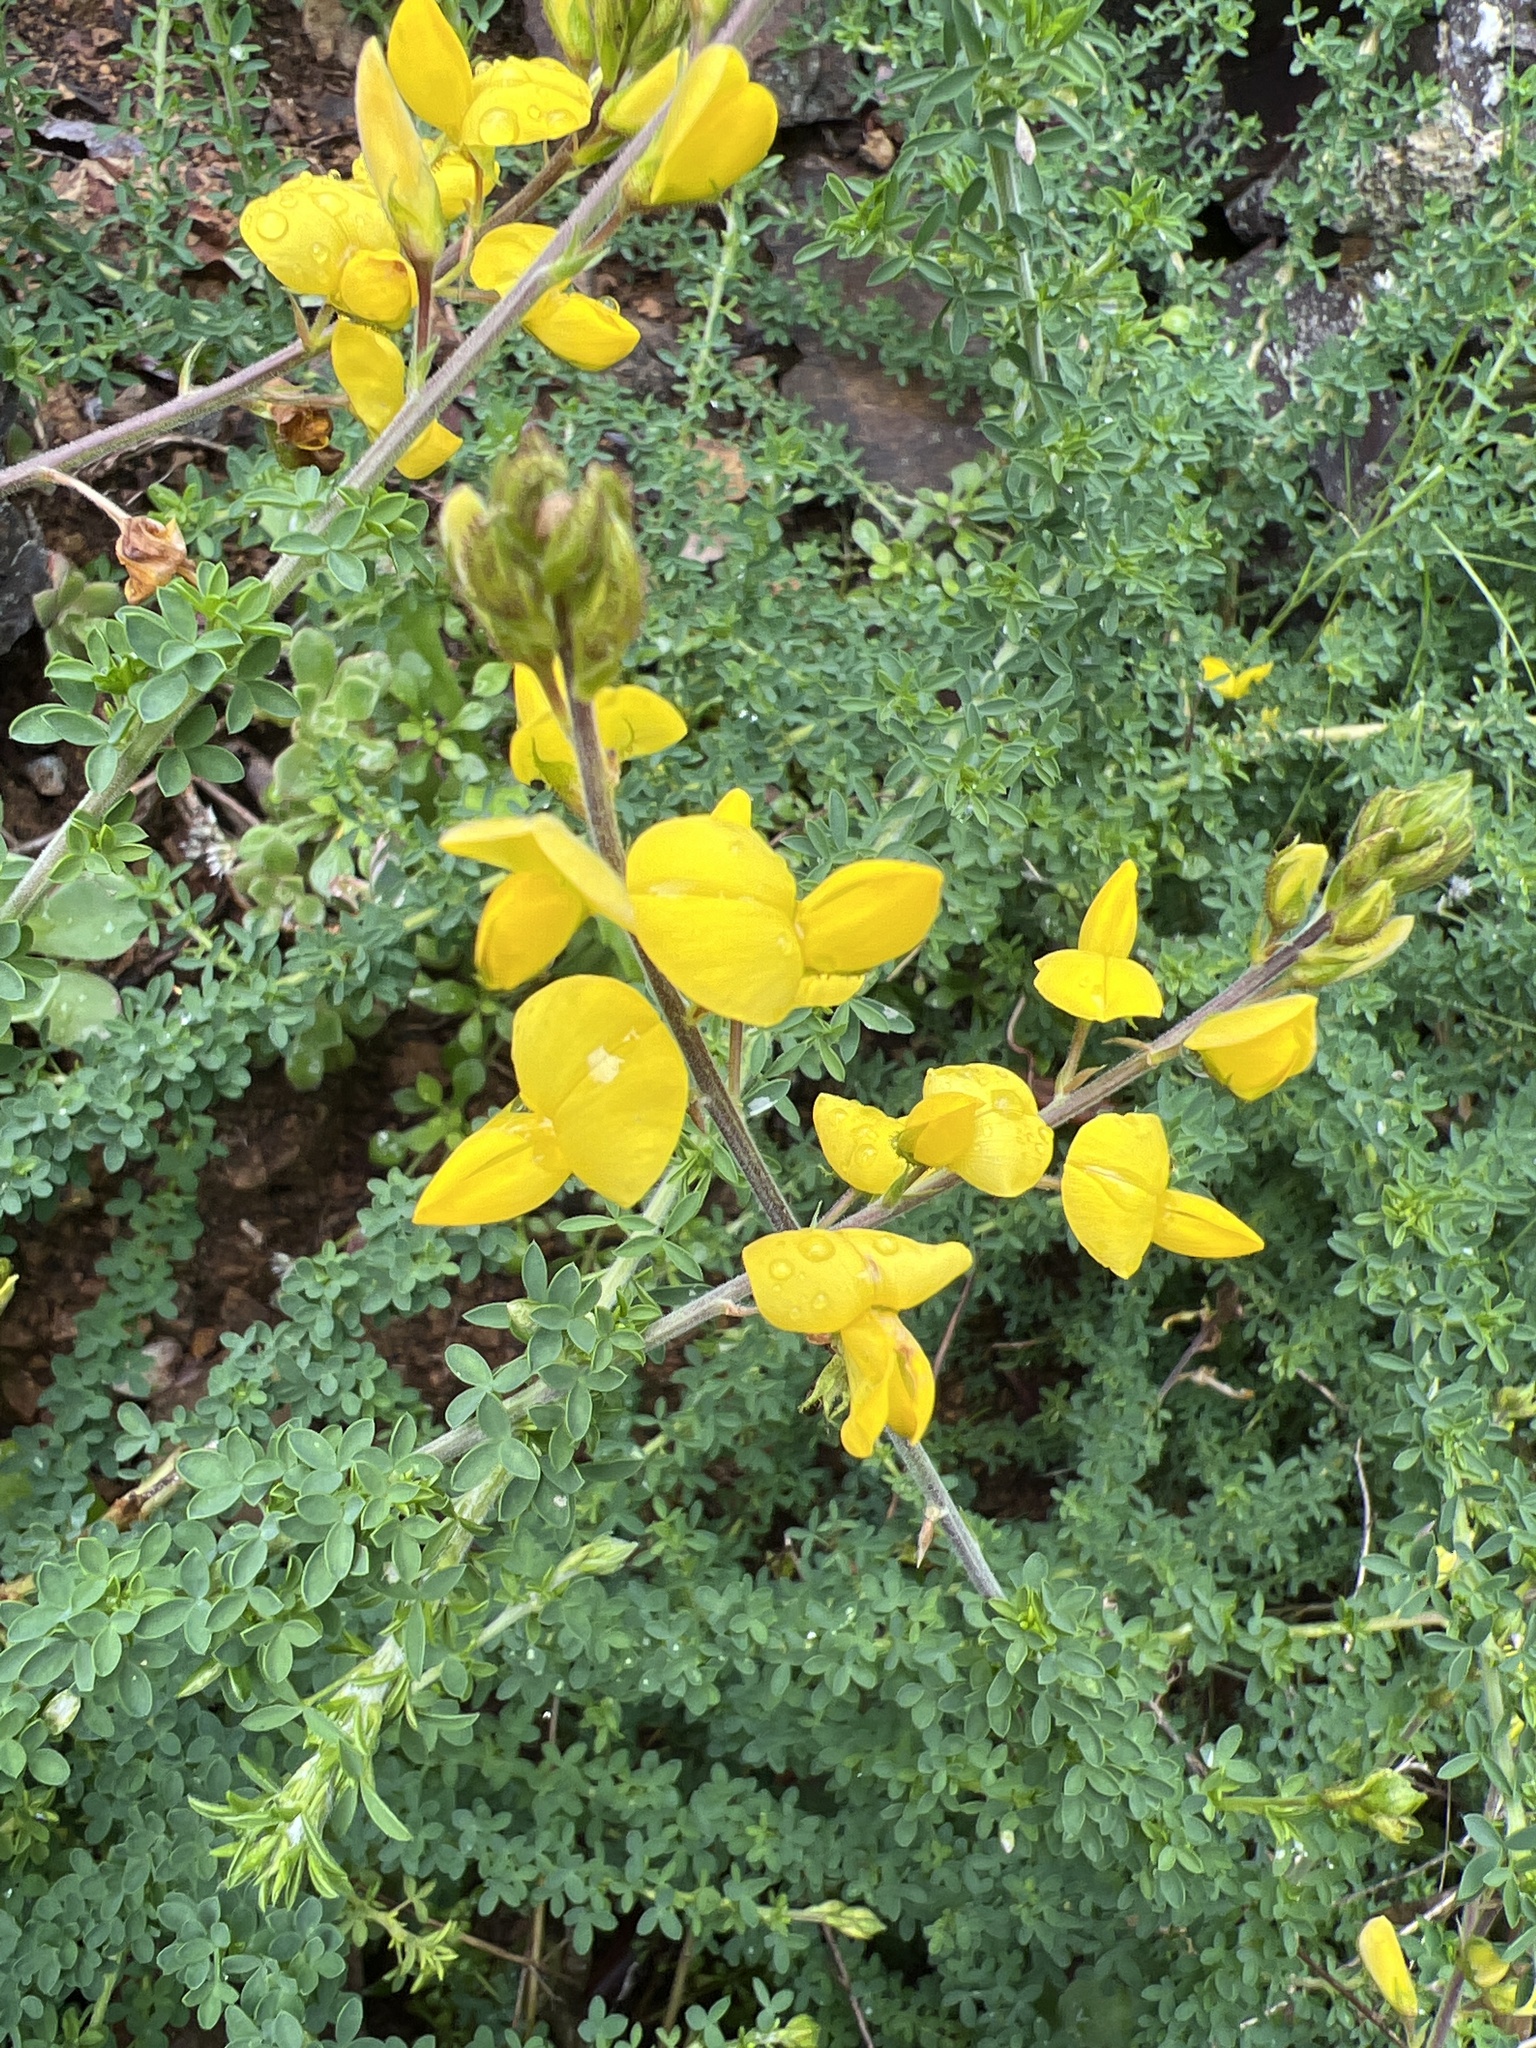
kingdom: Plantae
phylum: Tracheophyta
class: Magnoliopsida
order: Fabales
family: Fabaceae
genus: Adenocarpus
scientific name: Adenocarpus foliolosus
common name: Canary island flatpod
